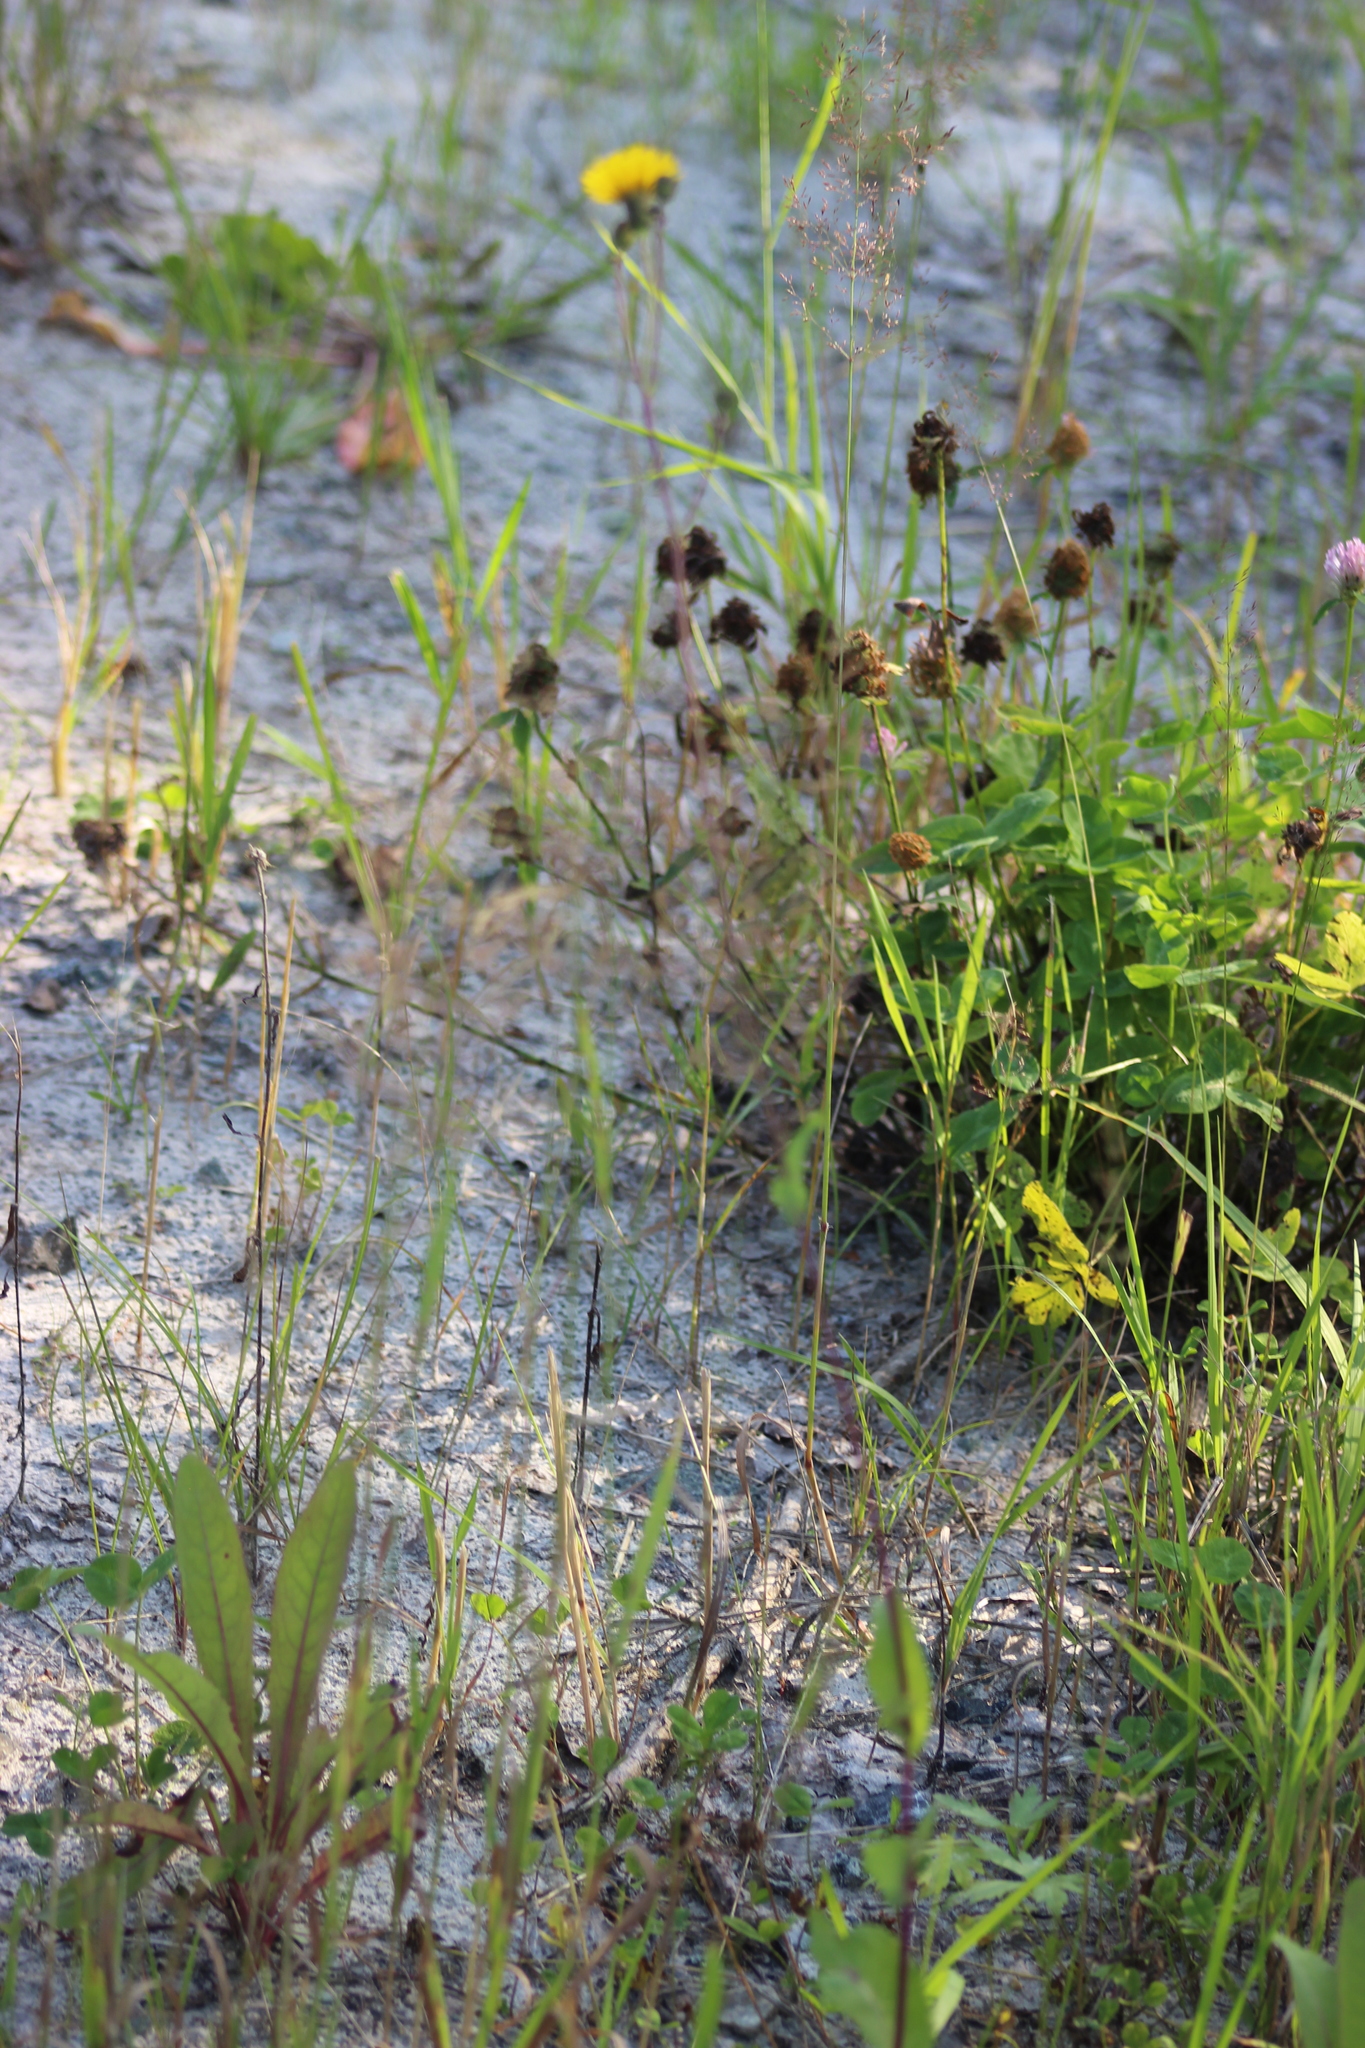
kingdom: Plantae
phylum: Tracheophyta
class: Magnoliopsida
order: Asterales
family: Asteraceae
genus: Sonchus
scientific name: Sonchus arvensis
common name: Perennial sow-thistle
